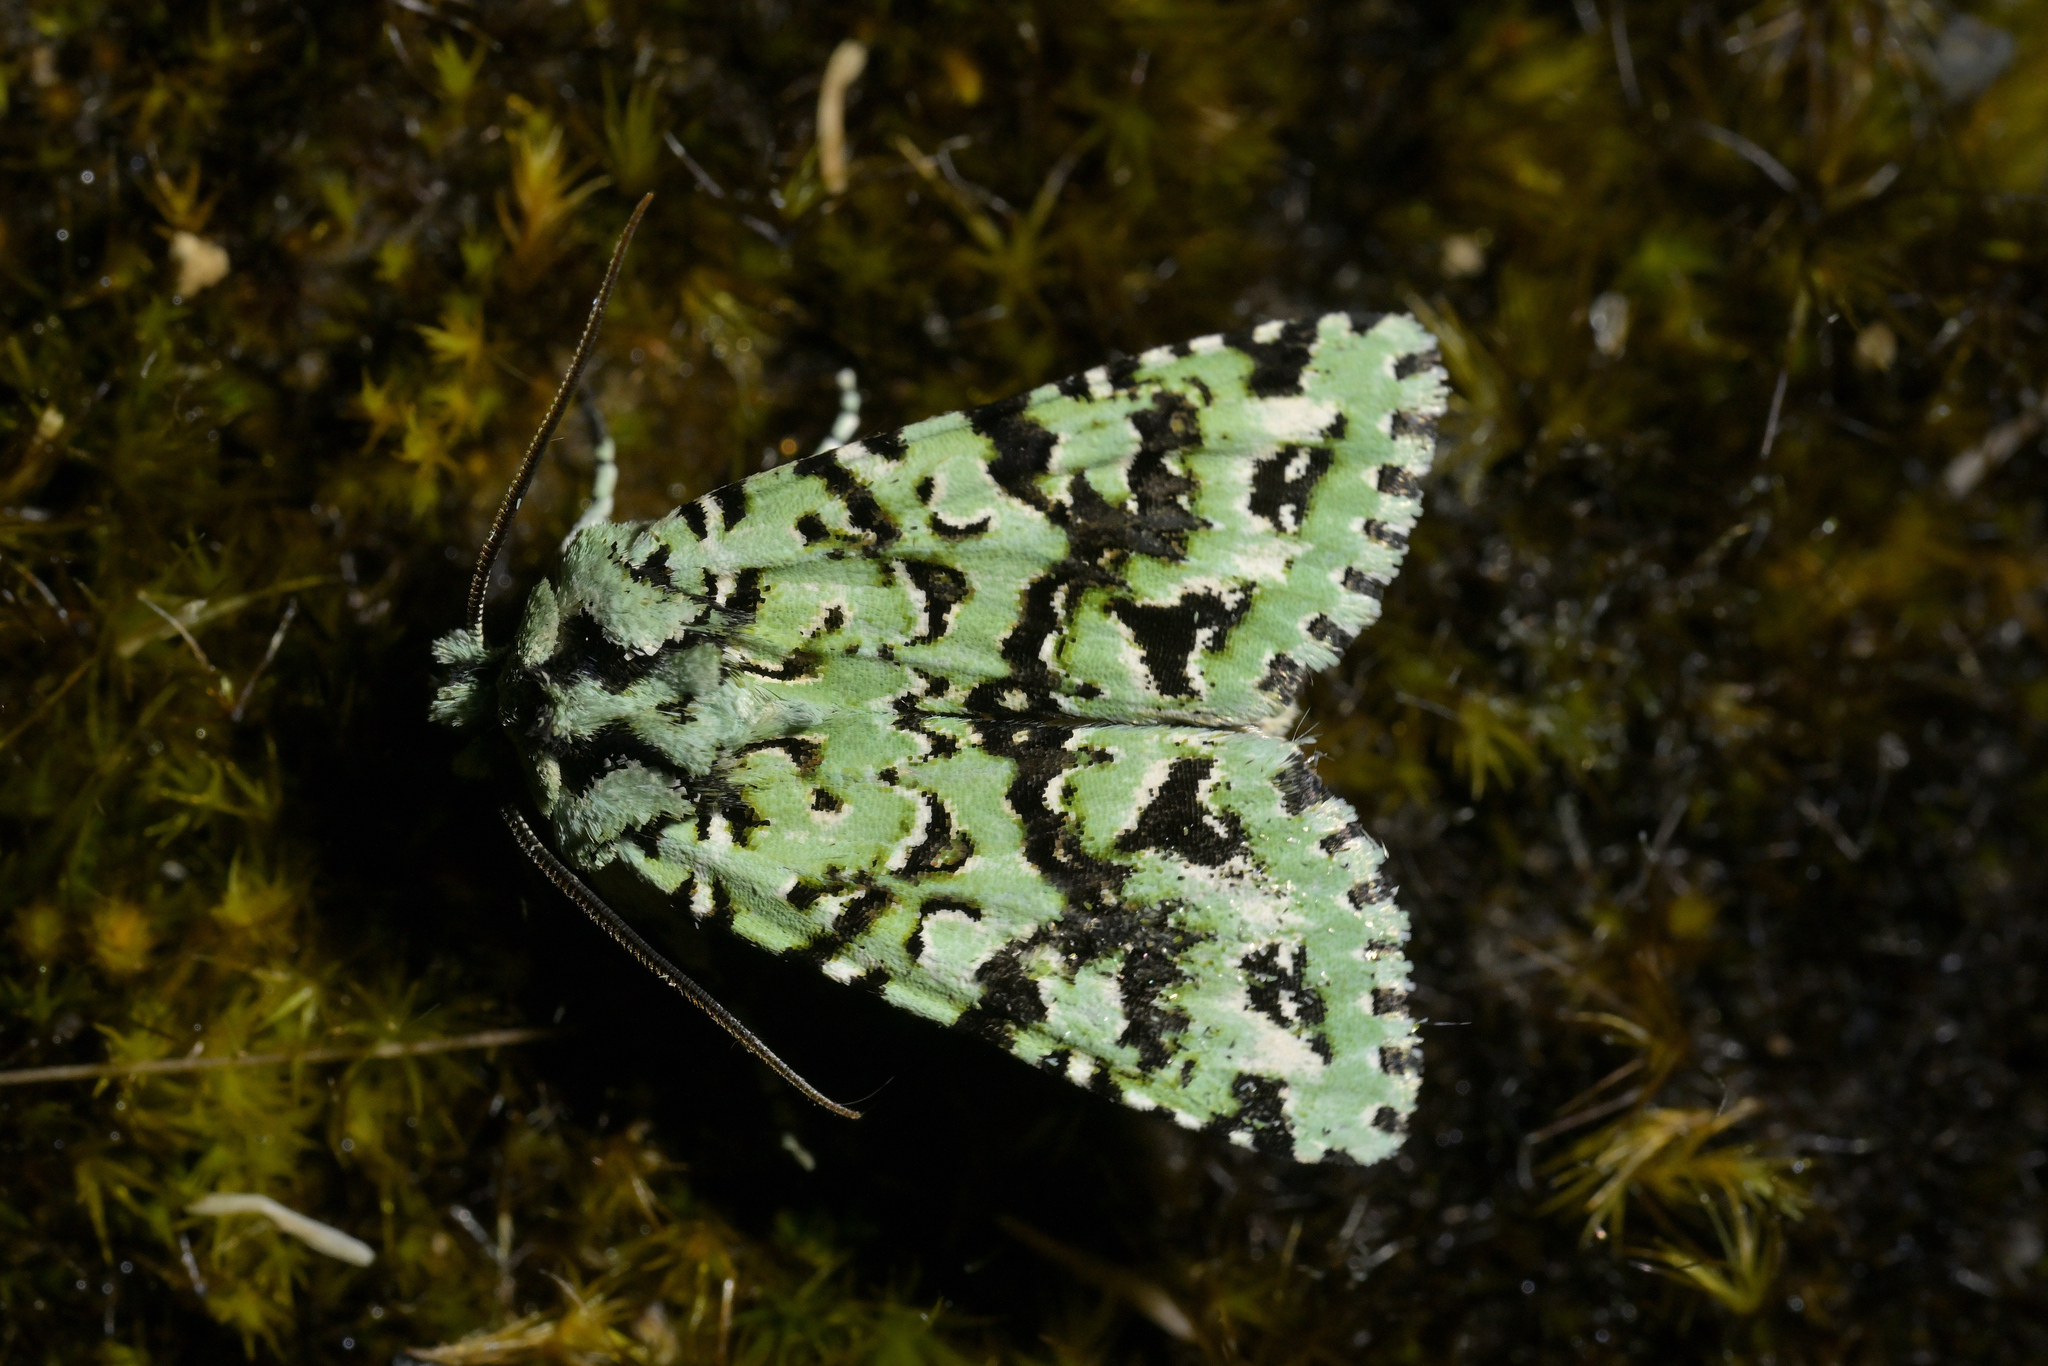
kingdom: Animalia
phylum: Arthropoda
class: Insecta
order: Lepidoptera
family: Noctuidae
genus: Meterana
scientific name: Meterana
